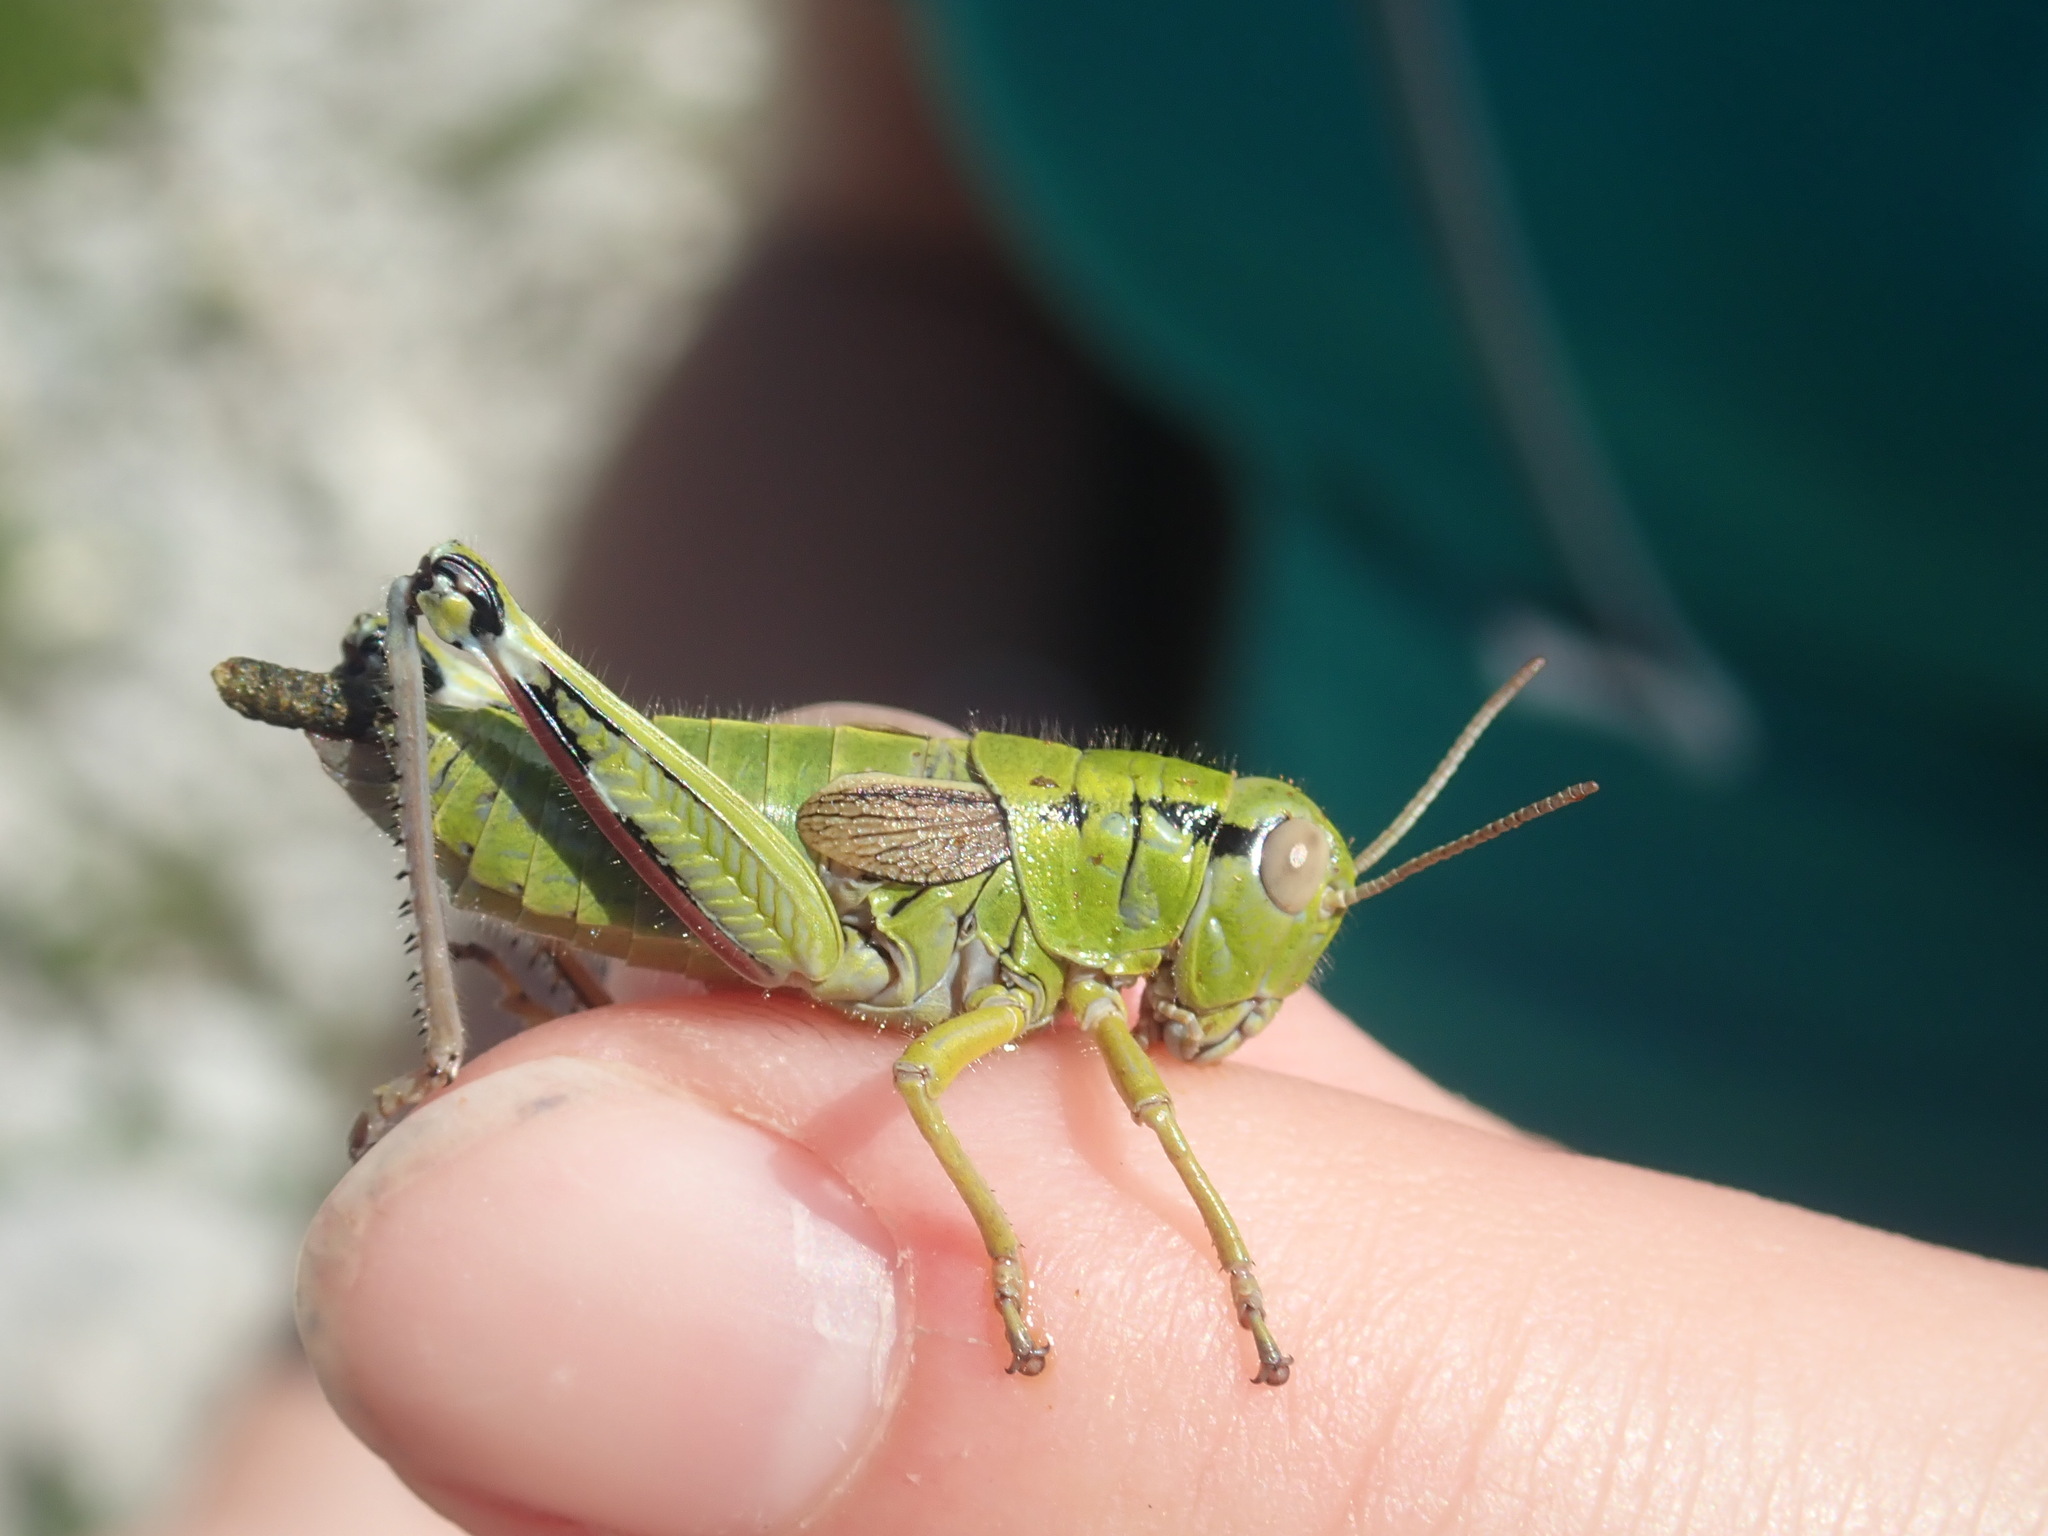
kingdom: Animalia
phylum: Arthropoda
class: Insecta
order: Orthoptera
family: Acrididae
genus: Miramella
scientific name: Miramella alpina
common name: Green mountain grasshopper
